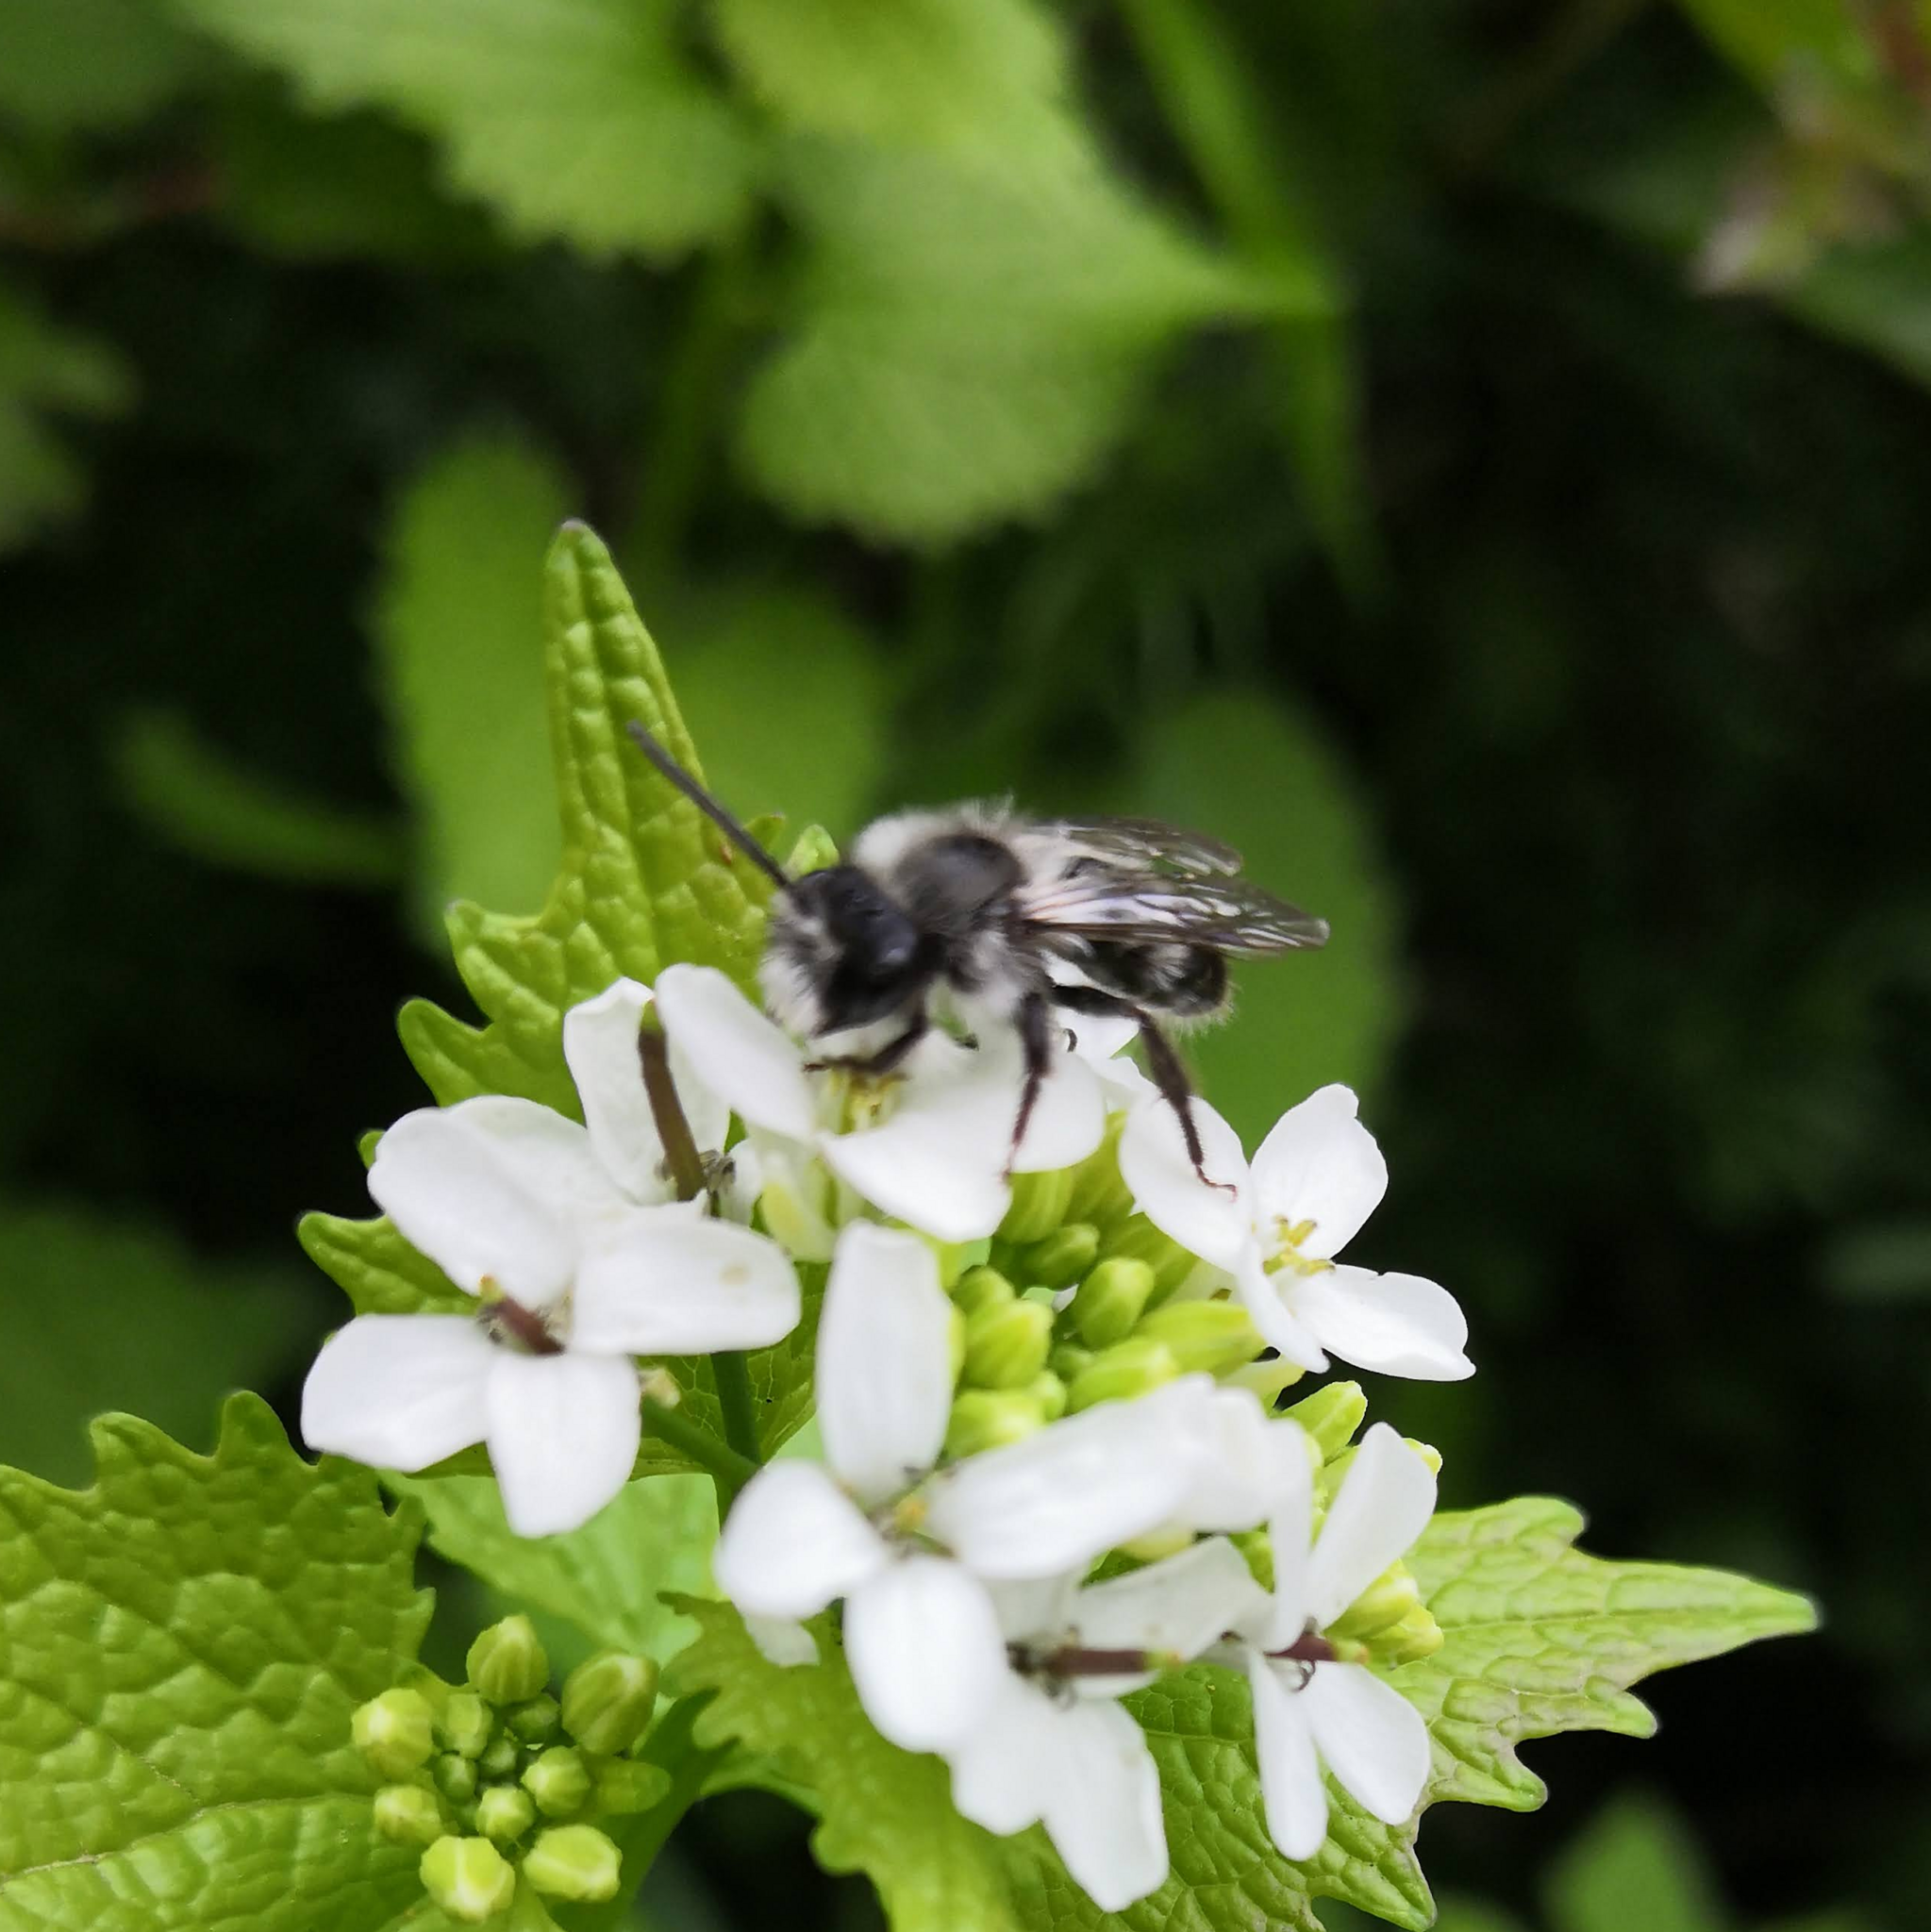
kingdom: Animalia
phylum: Arthropoda
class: Insecta
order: Hymenoptera
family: Andrenidae
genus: Andrena
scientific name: Andrena cineraria
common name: Ashy mining bee
